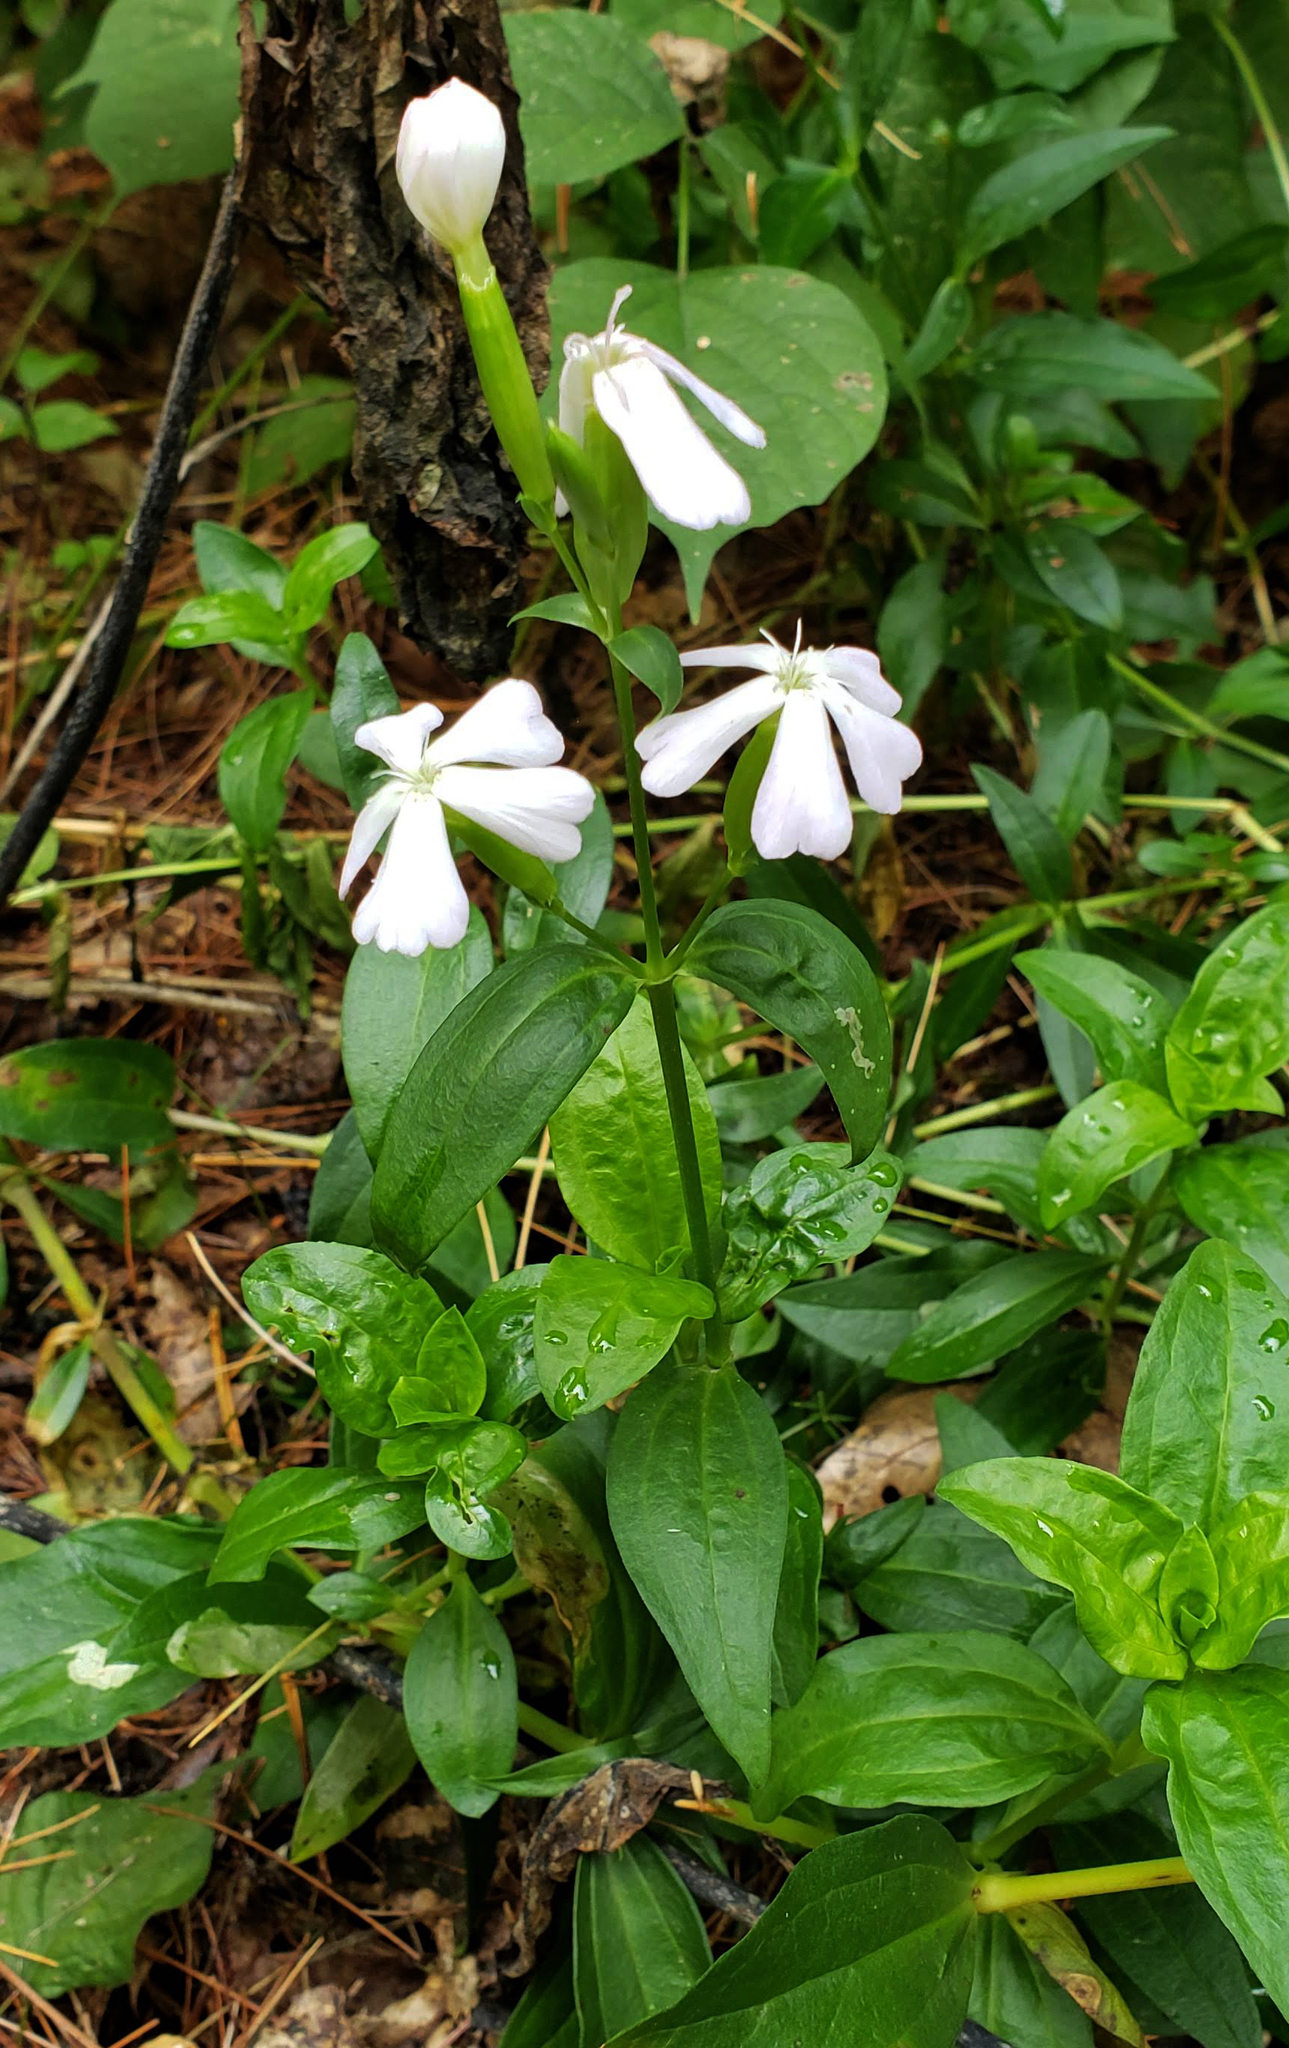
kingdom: Plantae
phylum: Tracheophyta
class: Magnoliopsida
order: Caryophyllales
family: Caryophyllaceae
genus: Saponaria
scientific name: Saponaria officinalis
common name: Soapwort
